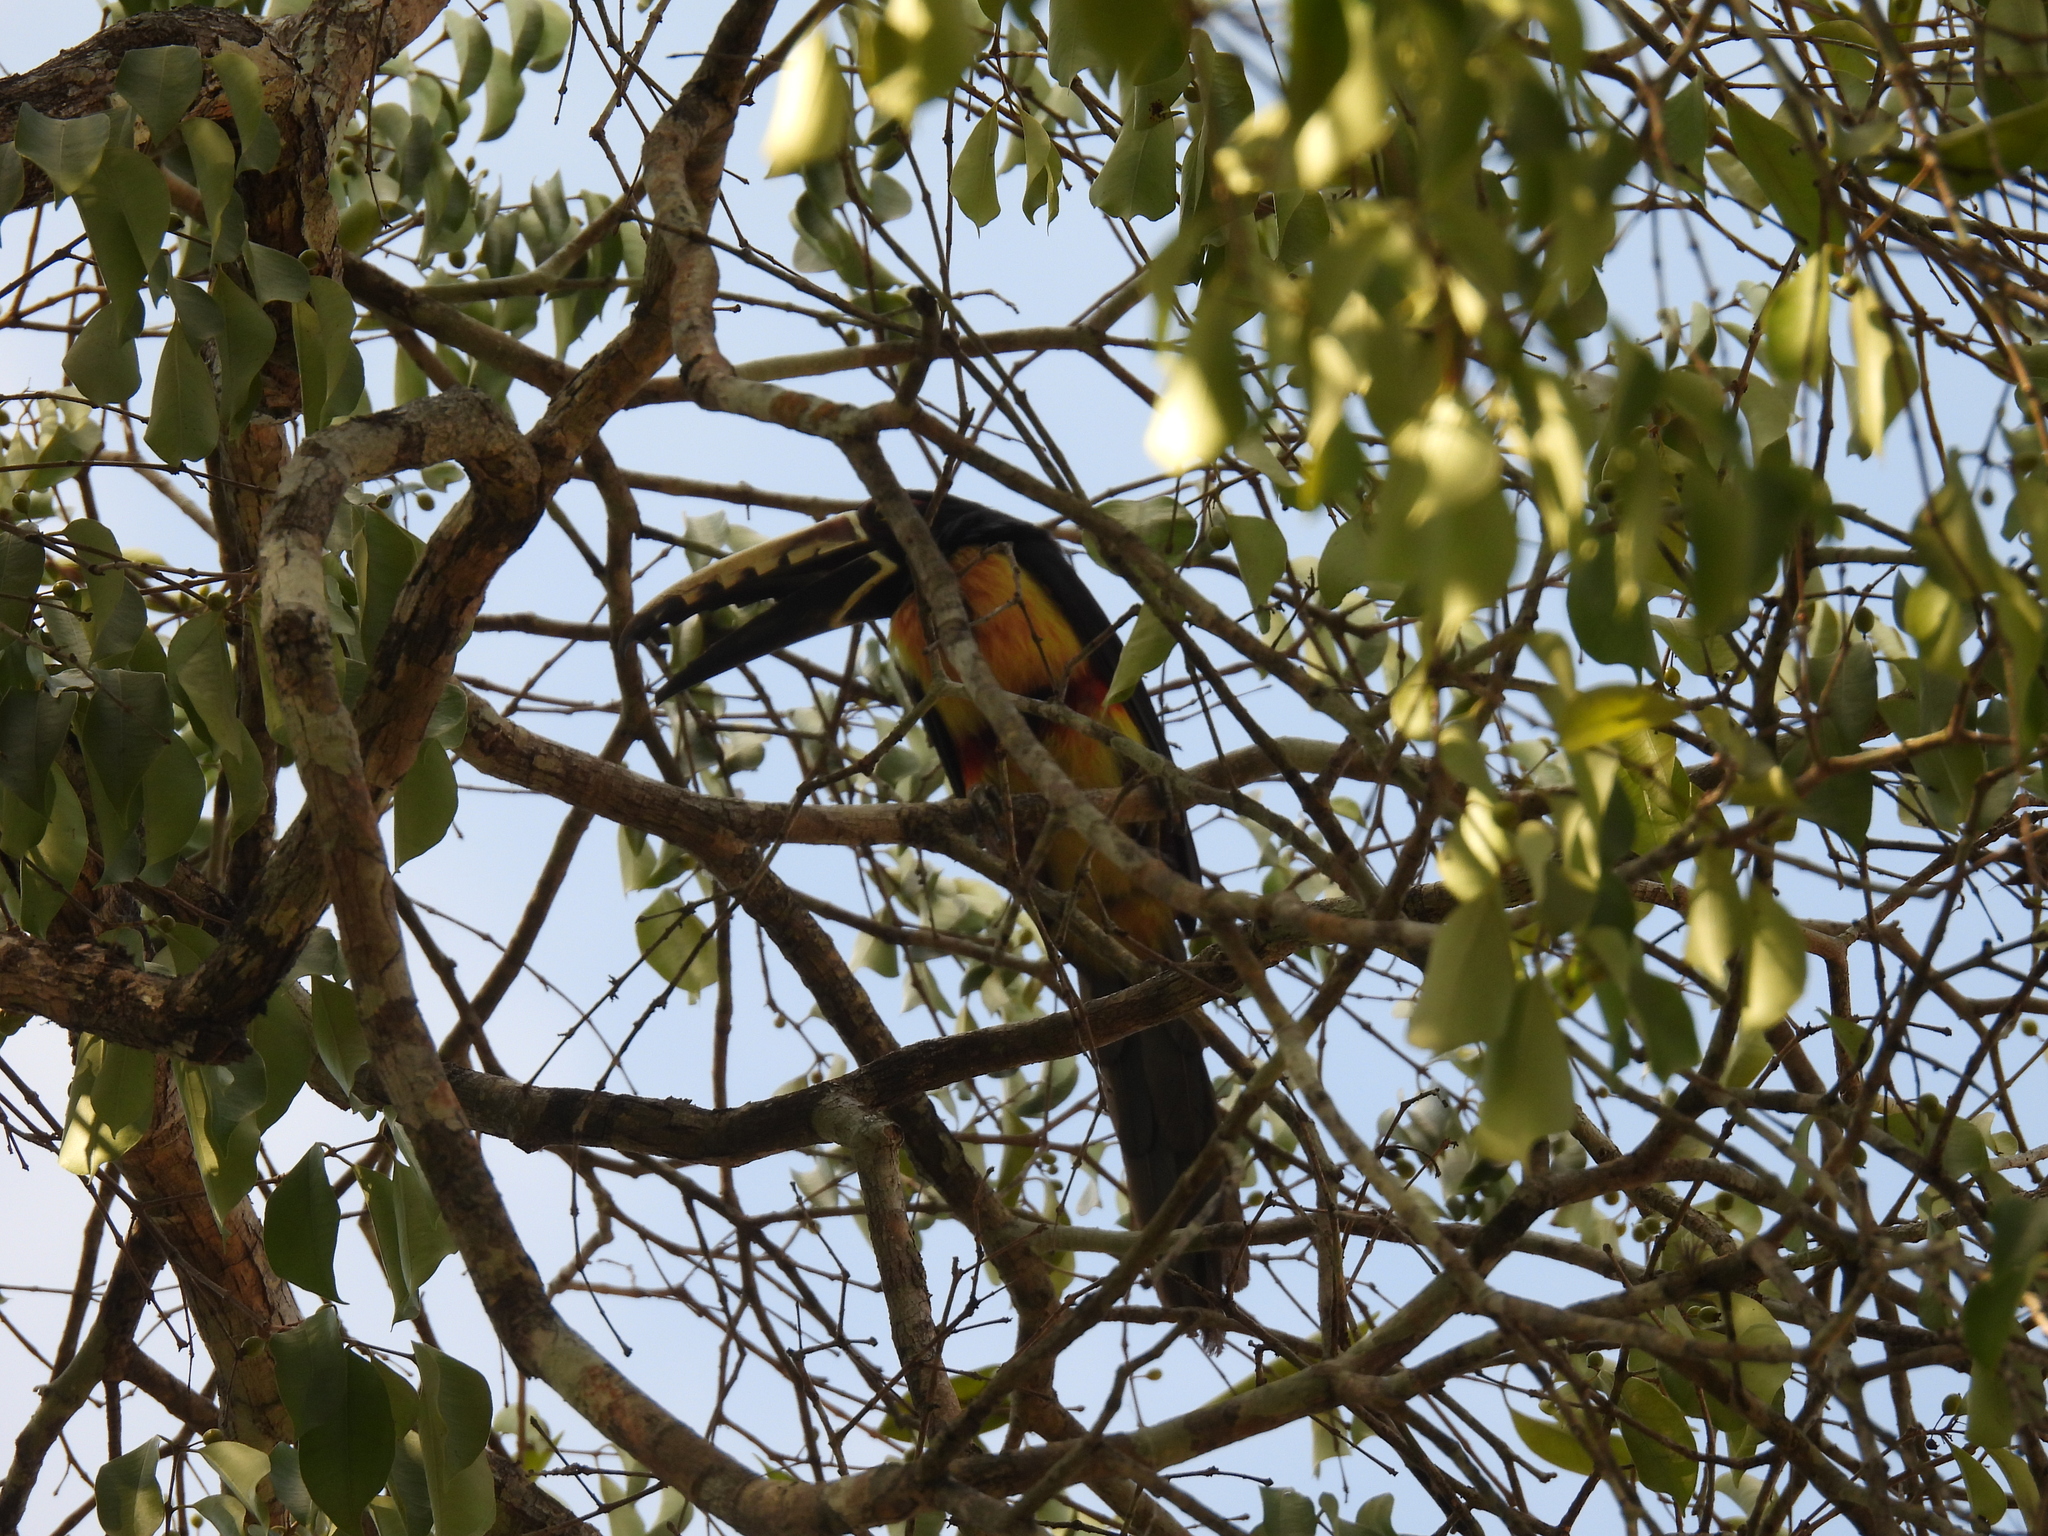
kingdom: Animalia
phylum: Chordata
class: Aves
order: Piciformes
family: Ramphastidae
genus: Pteroglossus
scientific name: Pteroglossus torquatus
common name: Collared aracari
